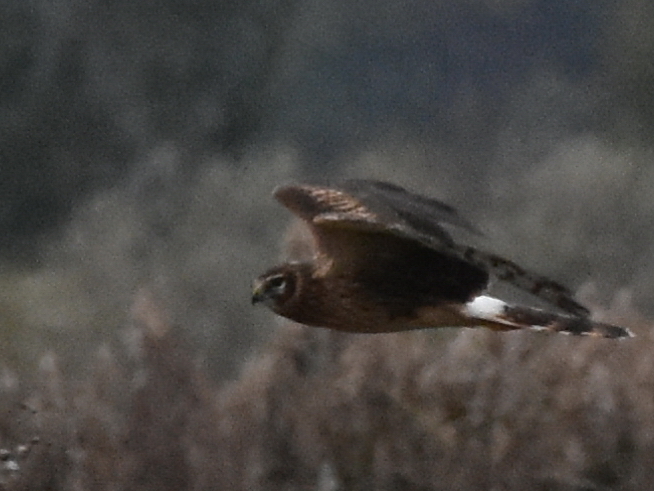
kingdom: Animalia
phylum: Chordata
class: Aves
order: Accipitriformes
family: Accipitridae
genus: Circus
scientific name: Circus cyaneus
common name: Hen harrier
